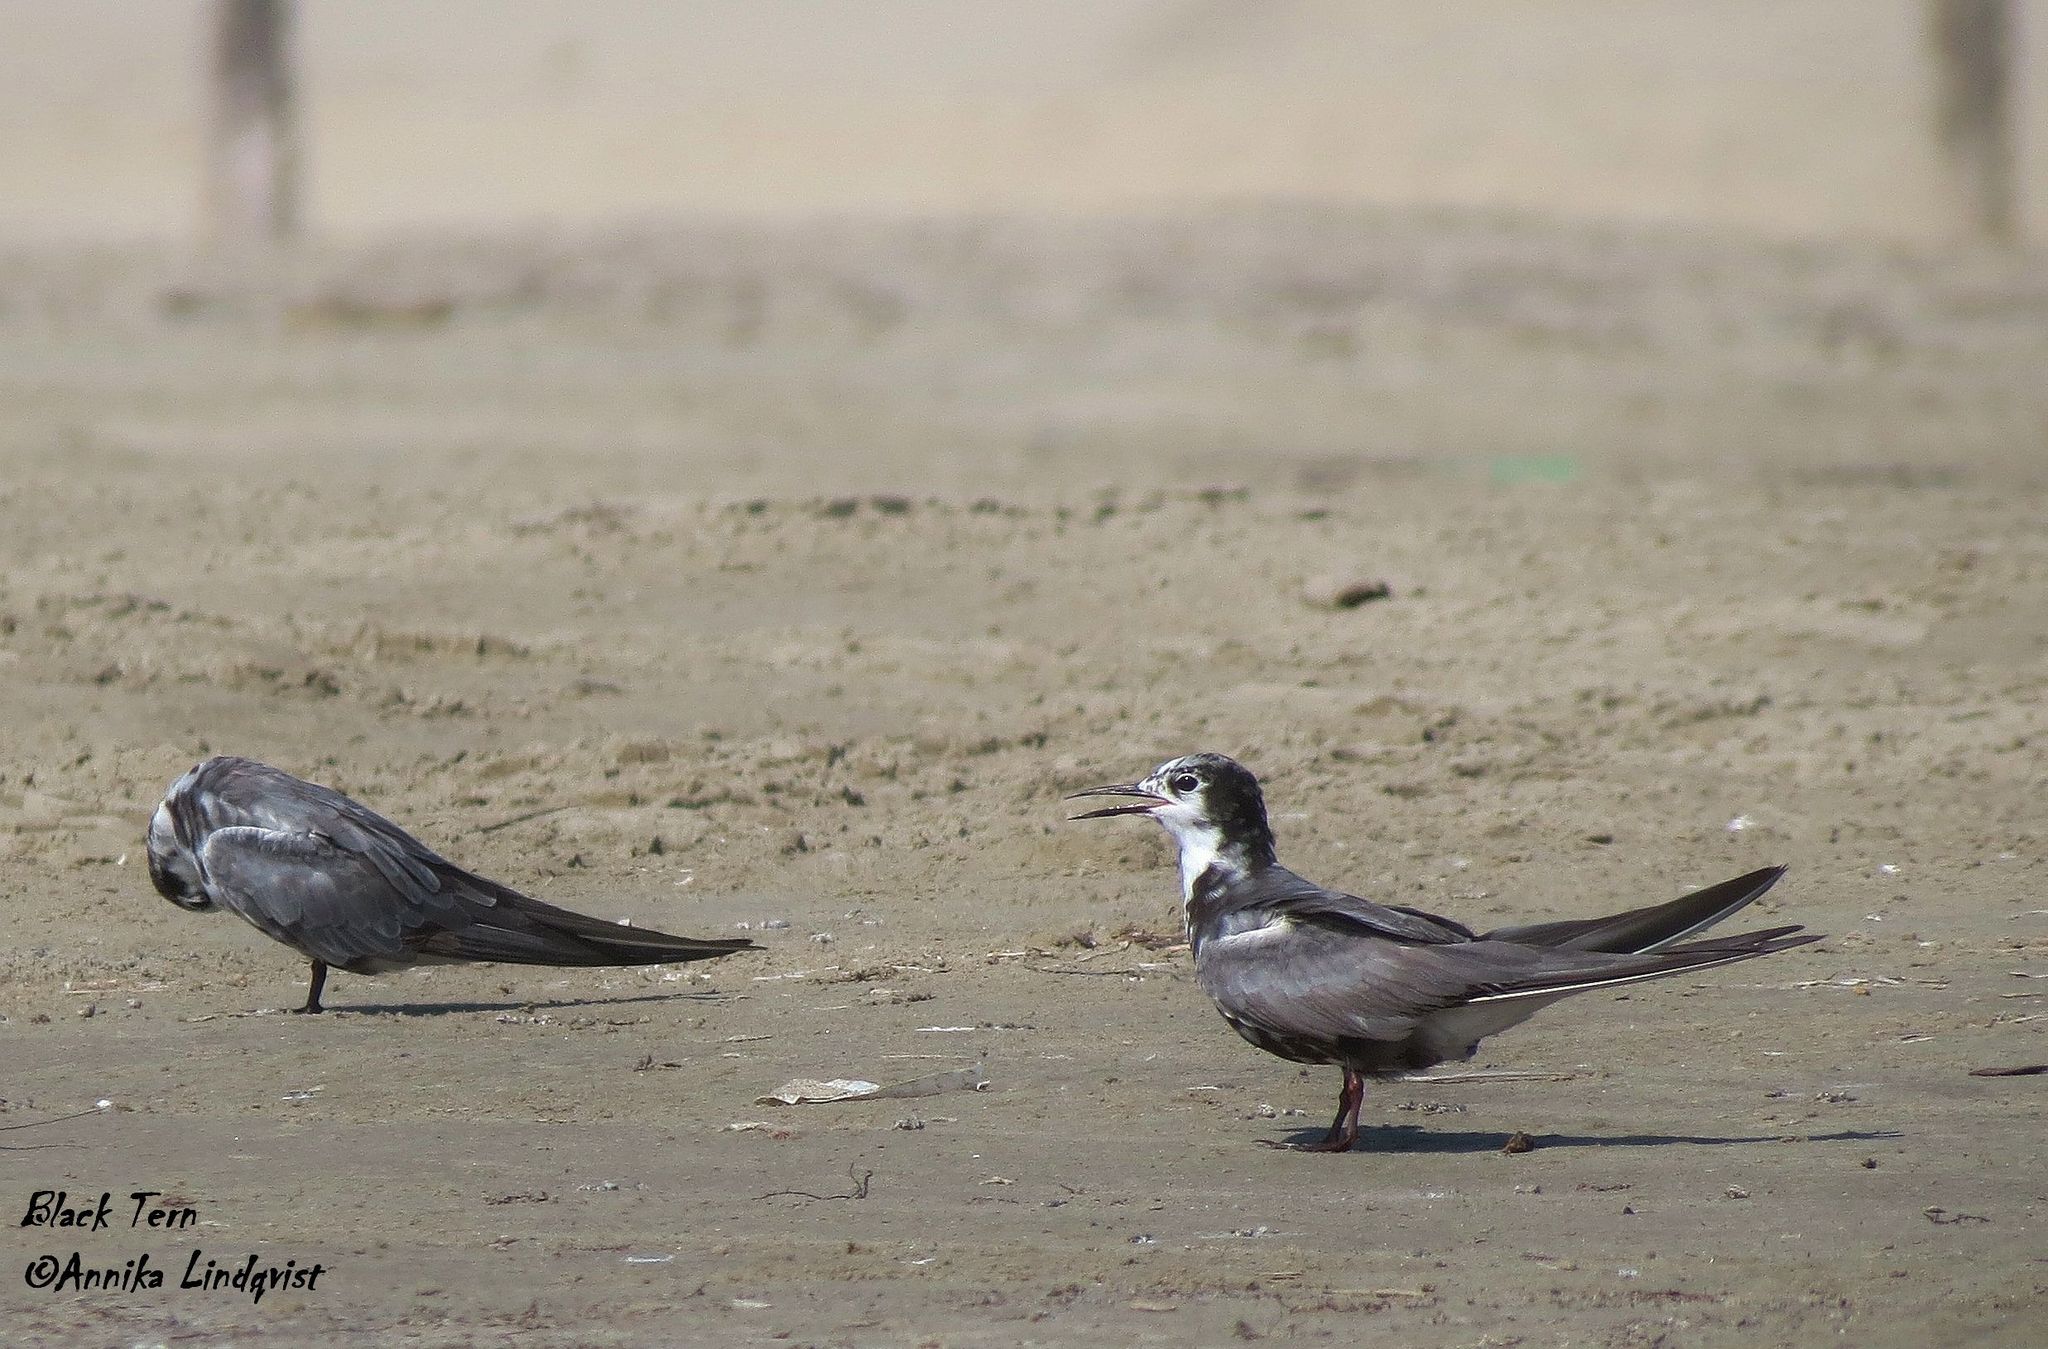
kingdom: Animalia
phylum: Chordata
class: Aves
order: Charadriiformes
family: Laridae
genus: Chlidonias
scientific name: Chlidonias niger
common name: Black tern
